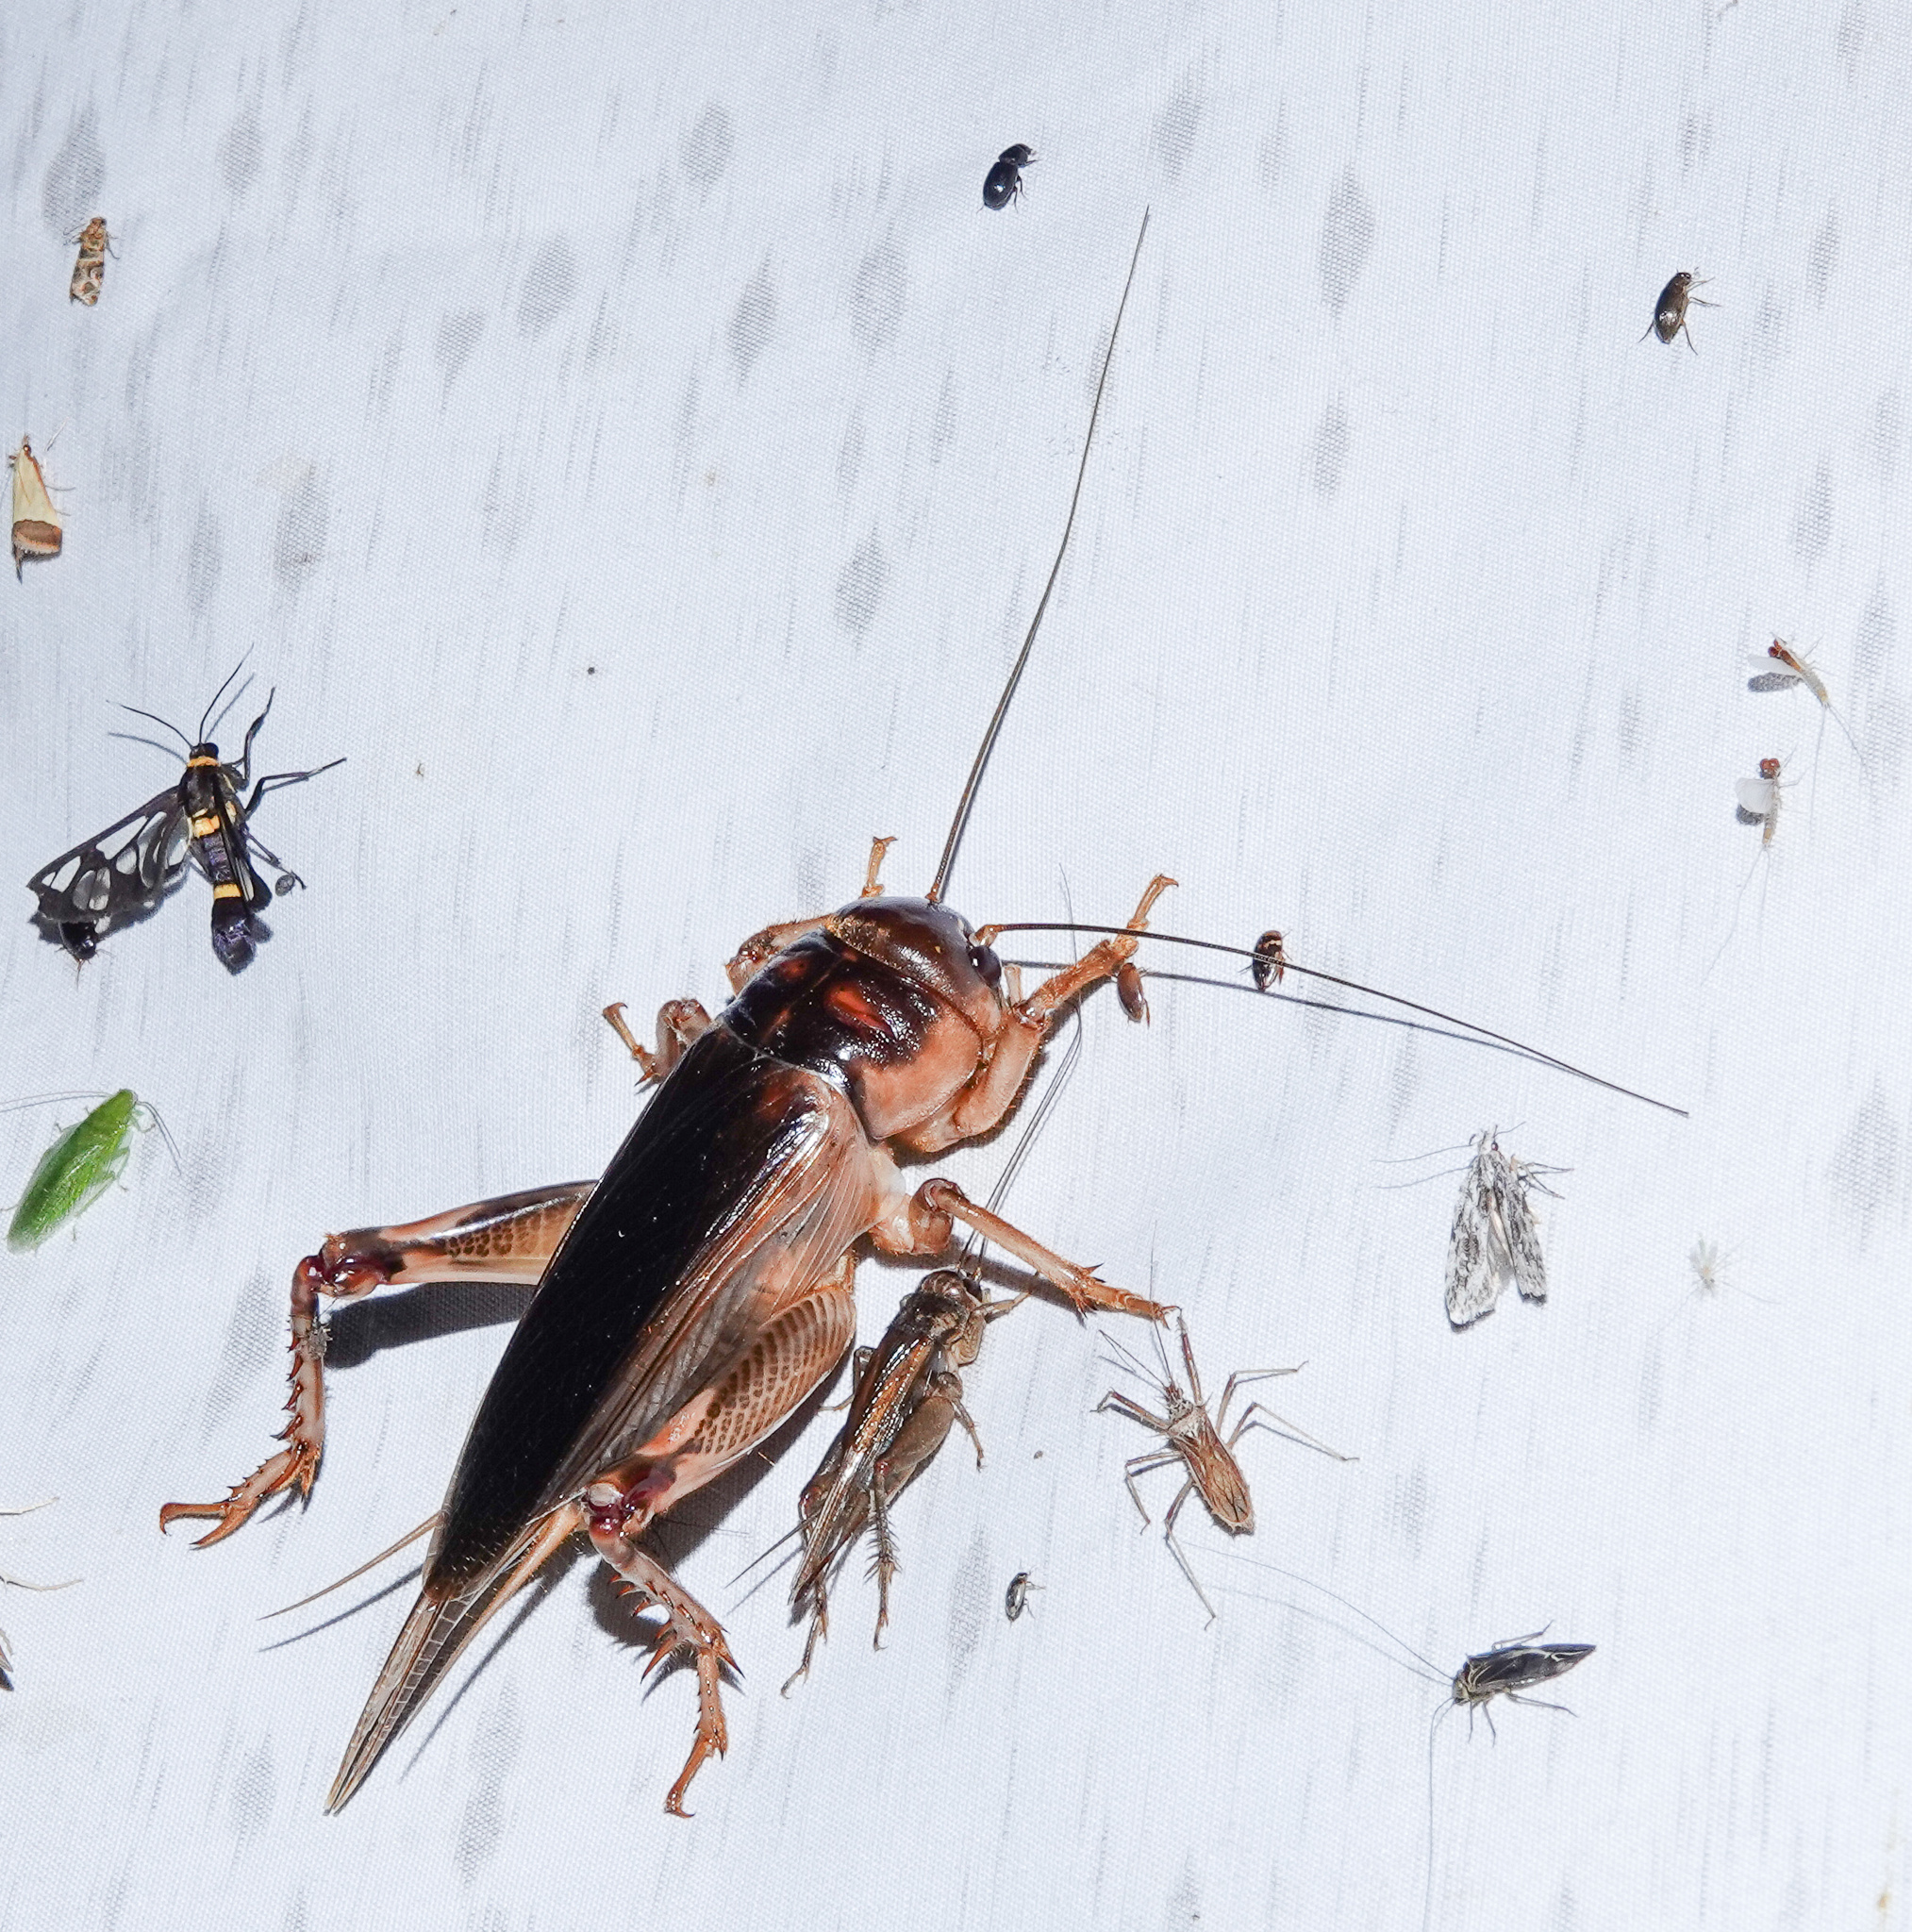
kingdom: Animalia
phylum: Arthropoda
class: Insecta
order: Orthoptera
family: Gryllidae
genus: Tarbinskiellus
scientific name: Tarbinskiellus portentosus
